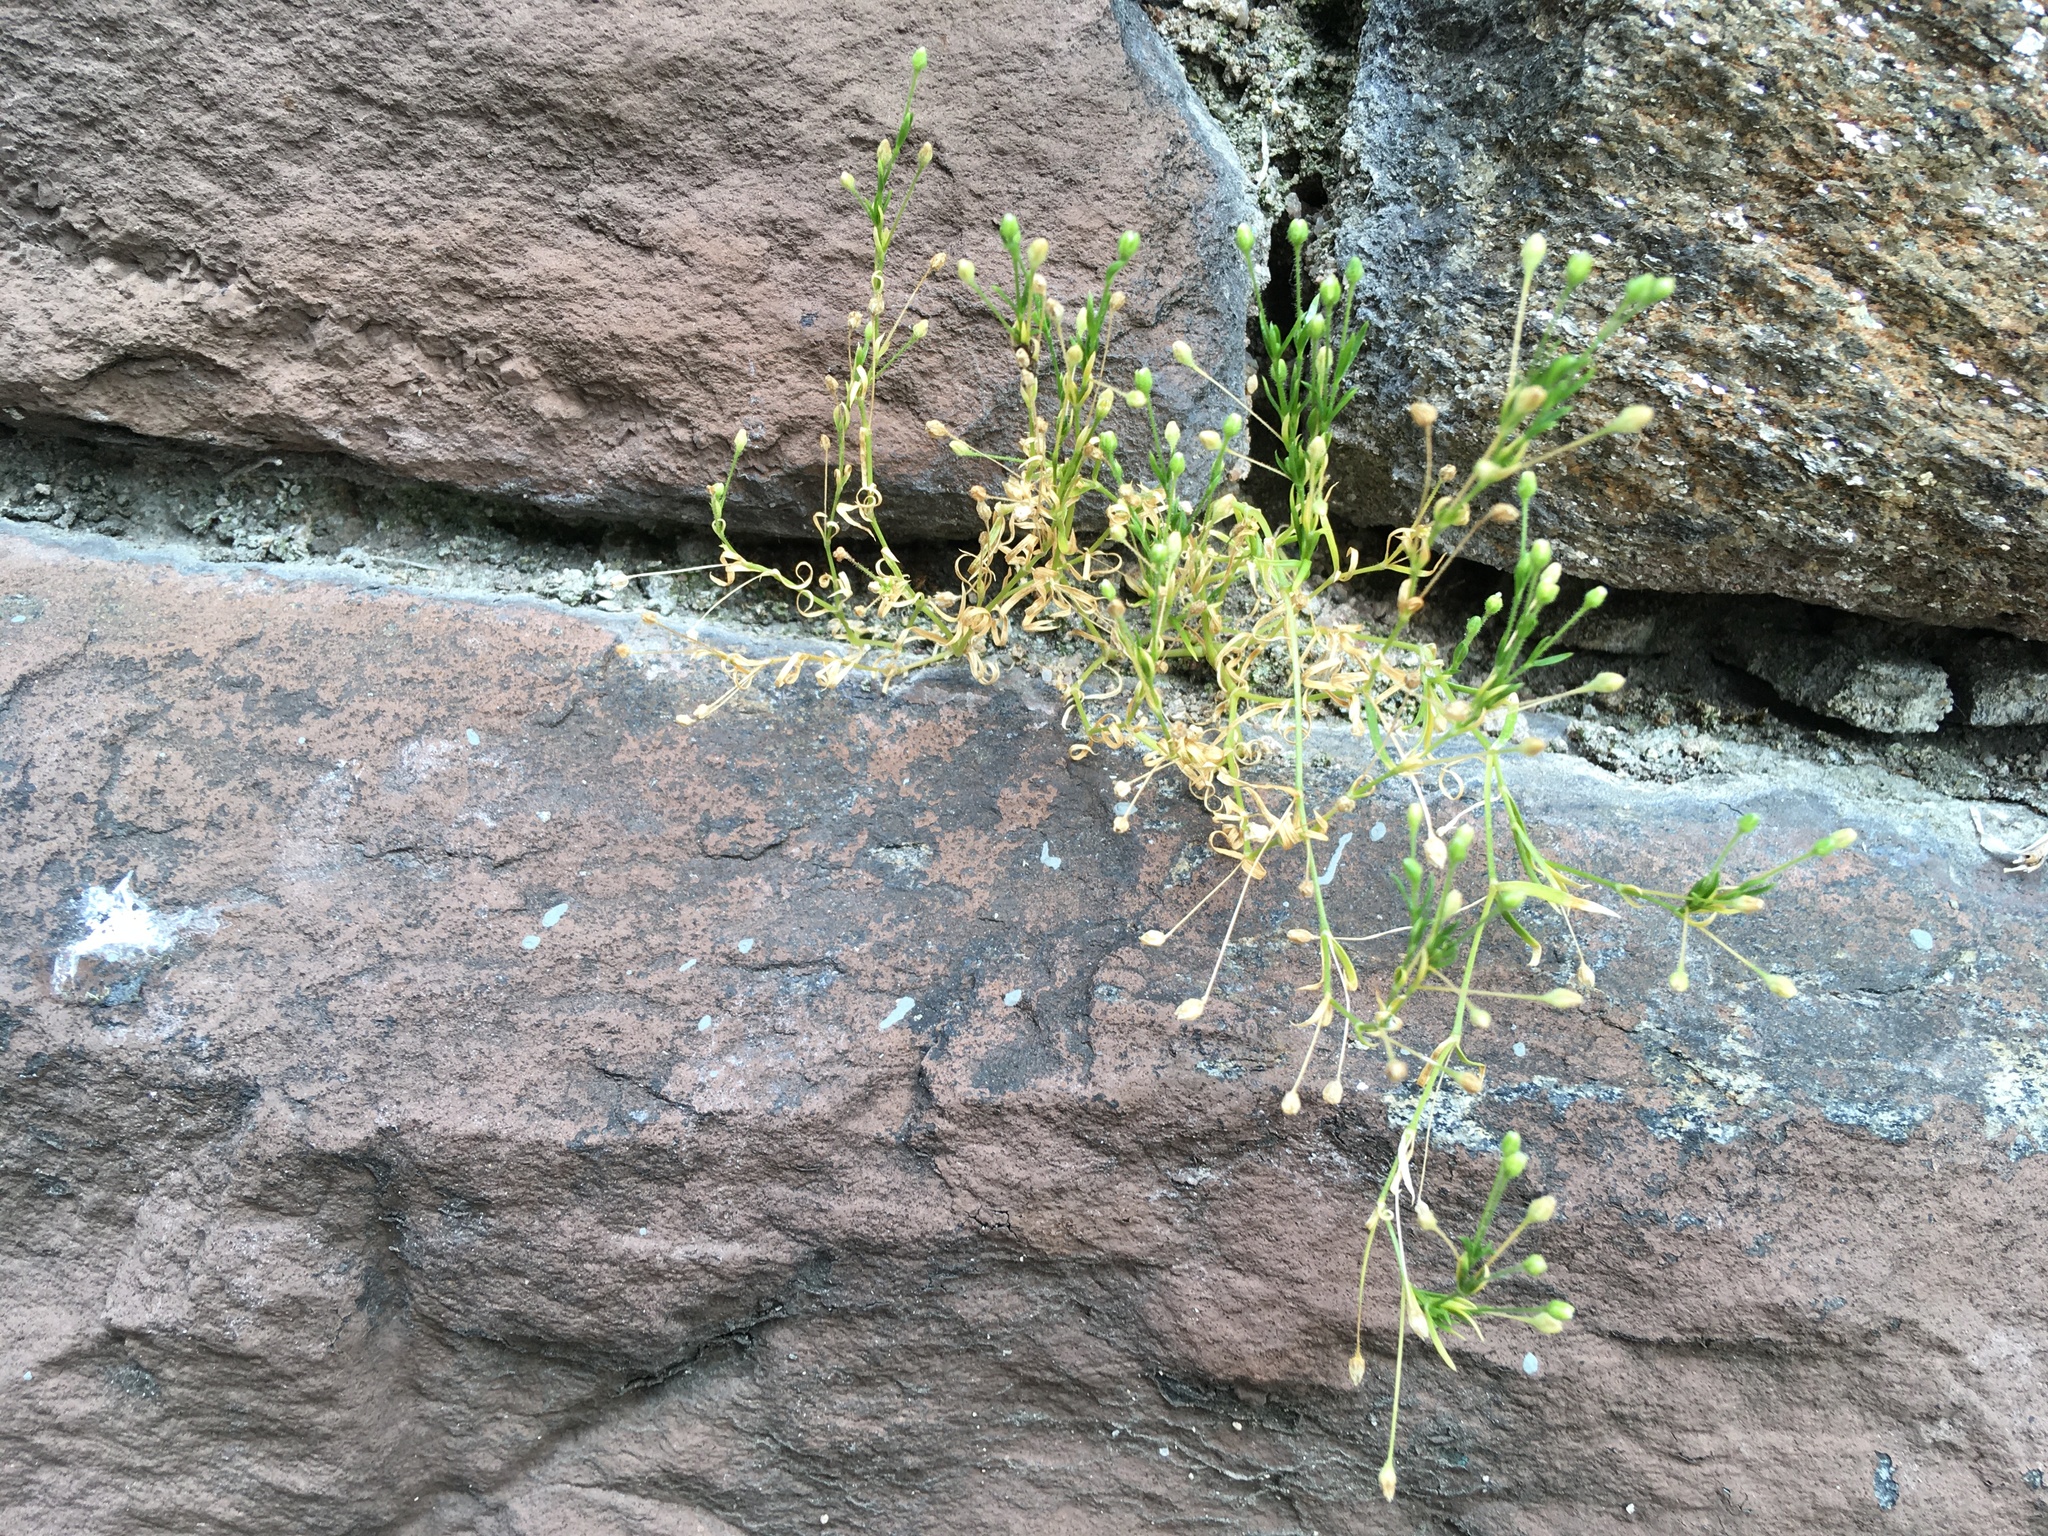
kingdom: Plantae
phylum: Tracheophyta
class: Magnoliopsida
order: Caryophyllales
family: Caryophyllaceae
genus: Sagina
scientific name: Sagina japonica
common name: Japanese pearlwort
